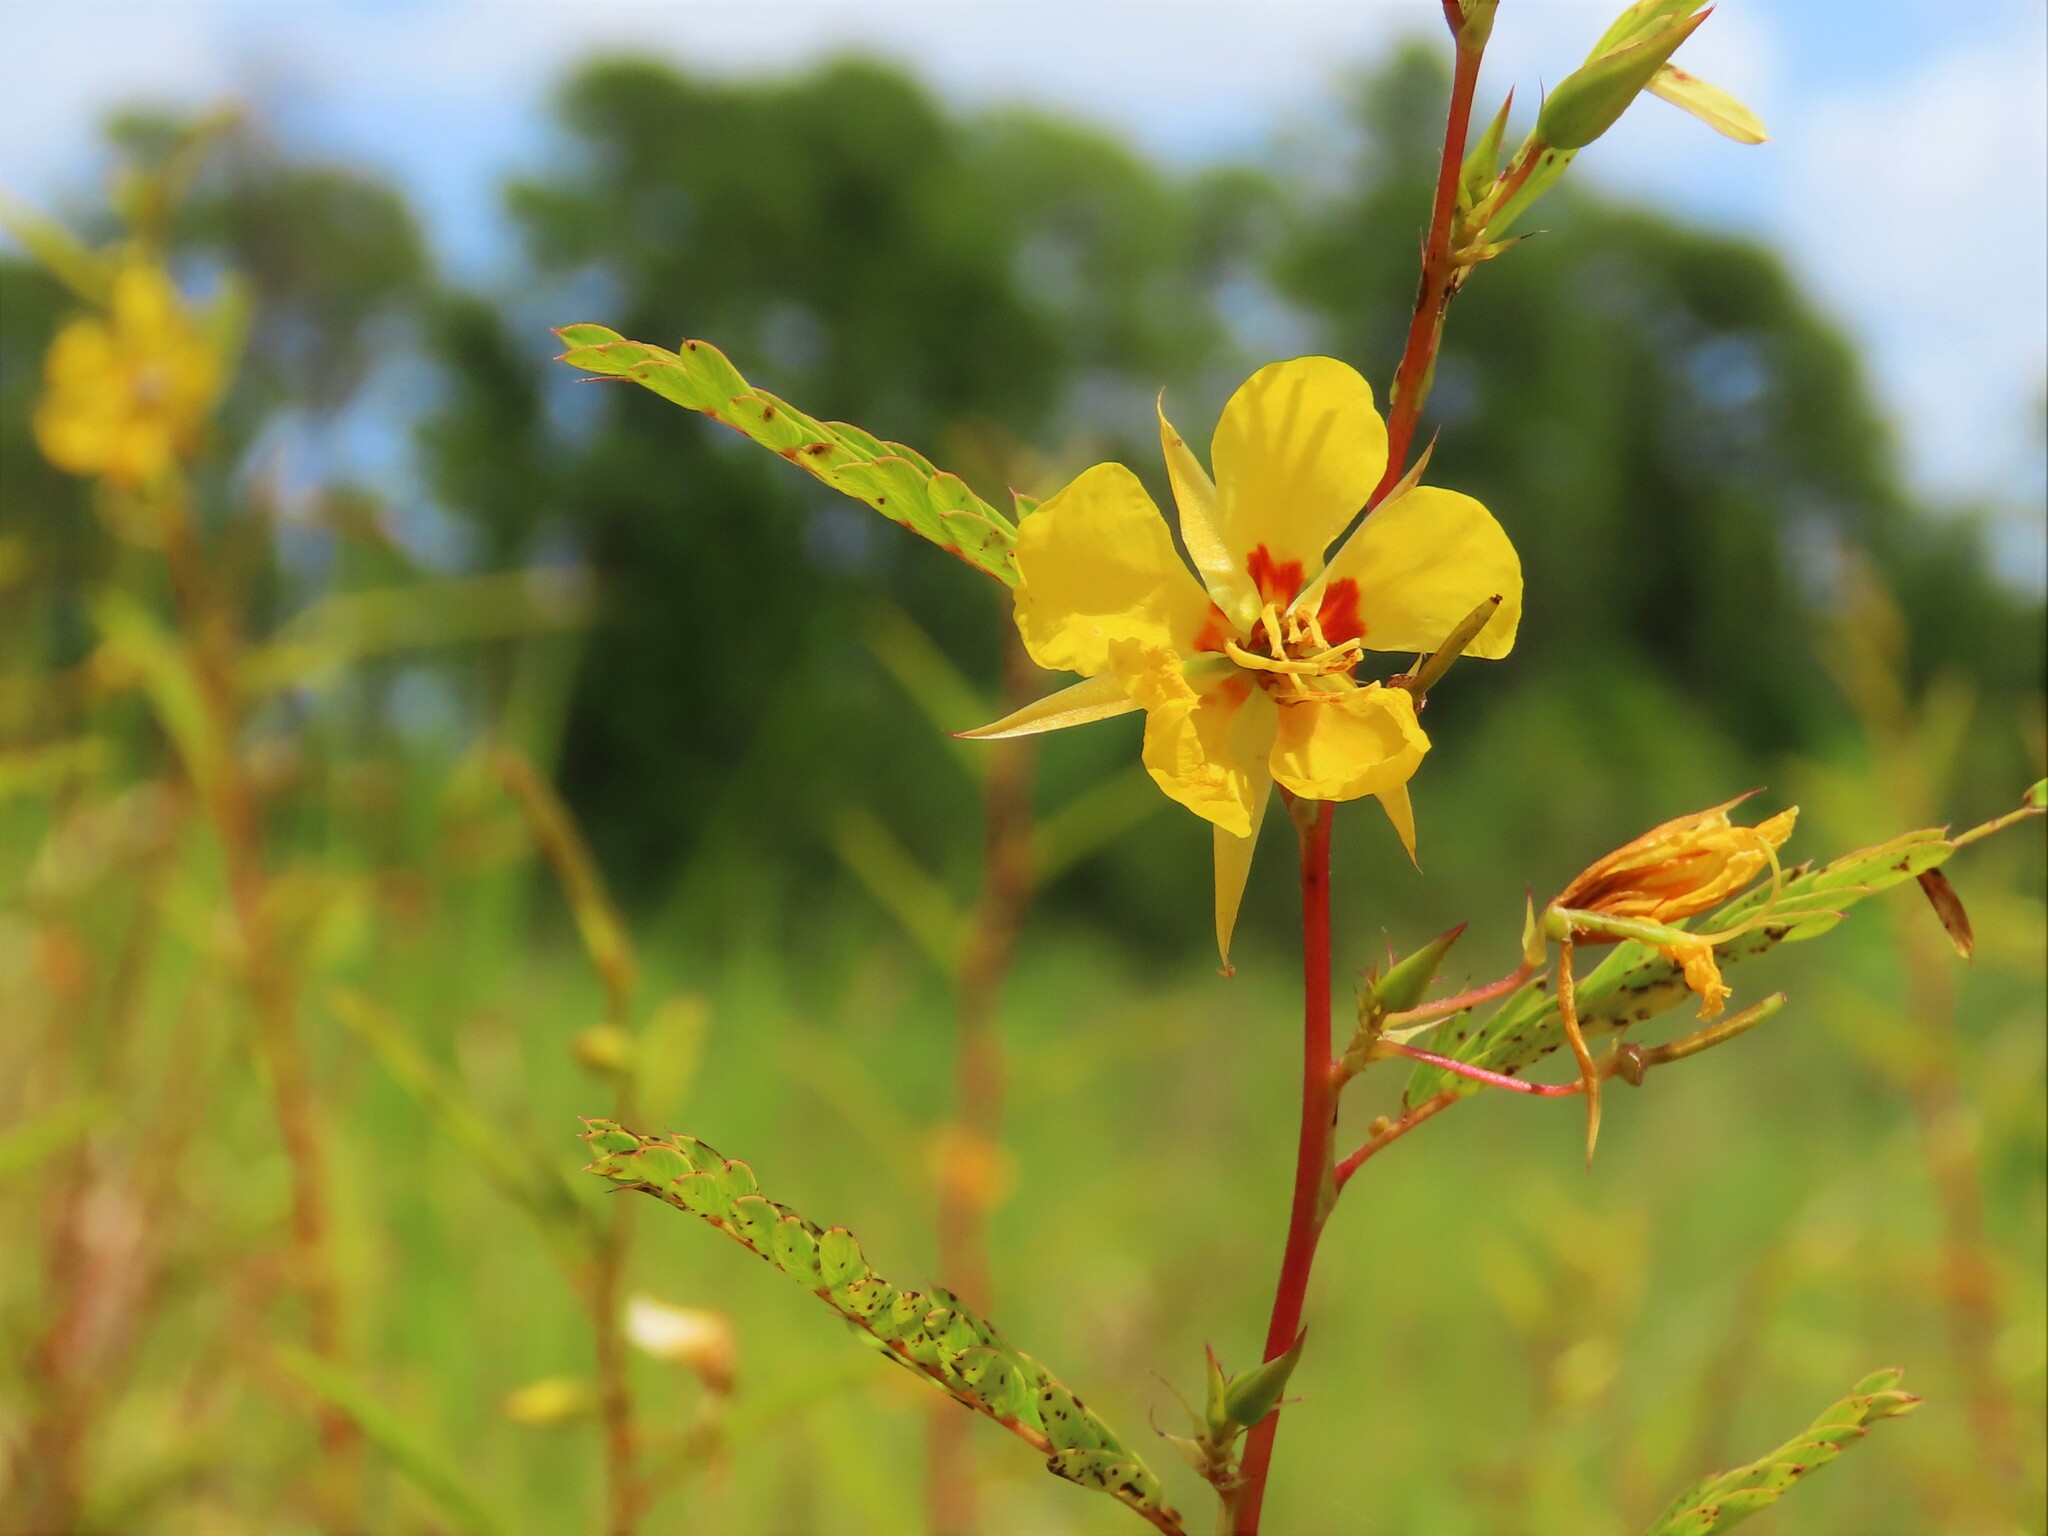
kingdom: Plantae
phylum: Tracheophyta
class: Magnoliopsida
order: Fabales
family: Fabaceae
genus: Chamaecrista
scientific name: Chamaecrista fasciculata
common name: Golden cassia
